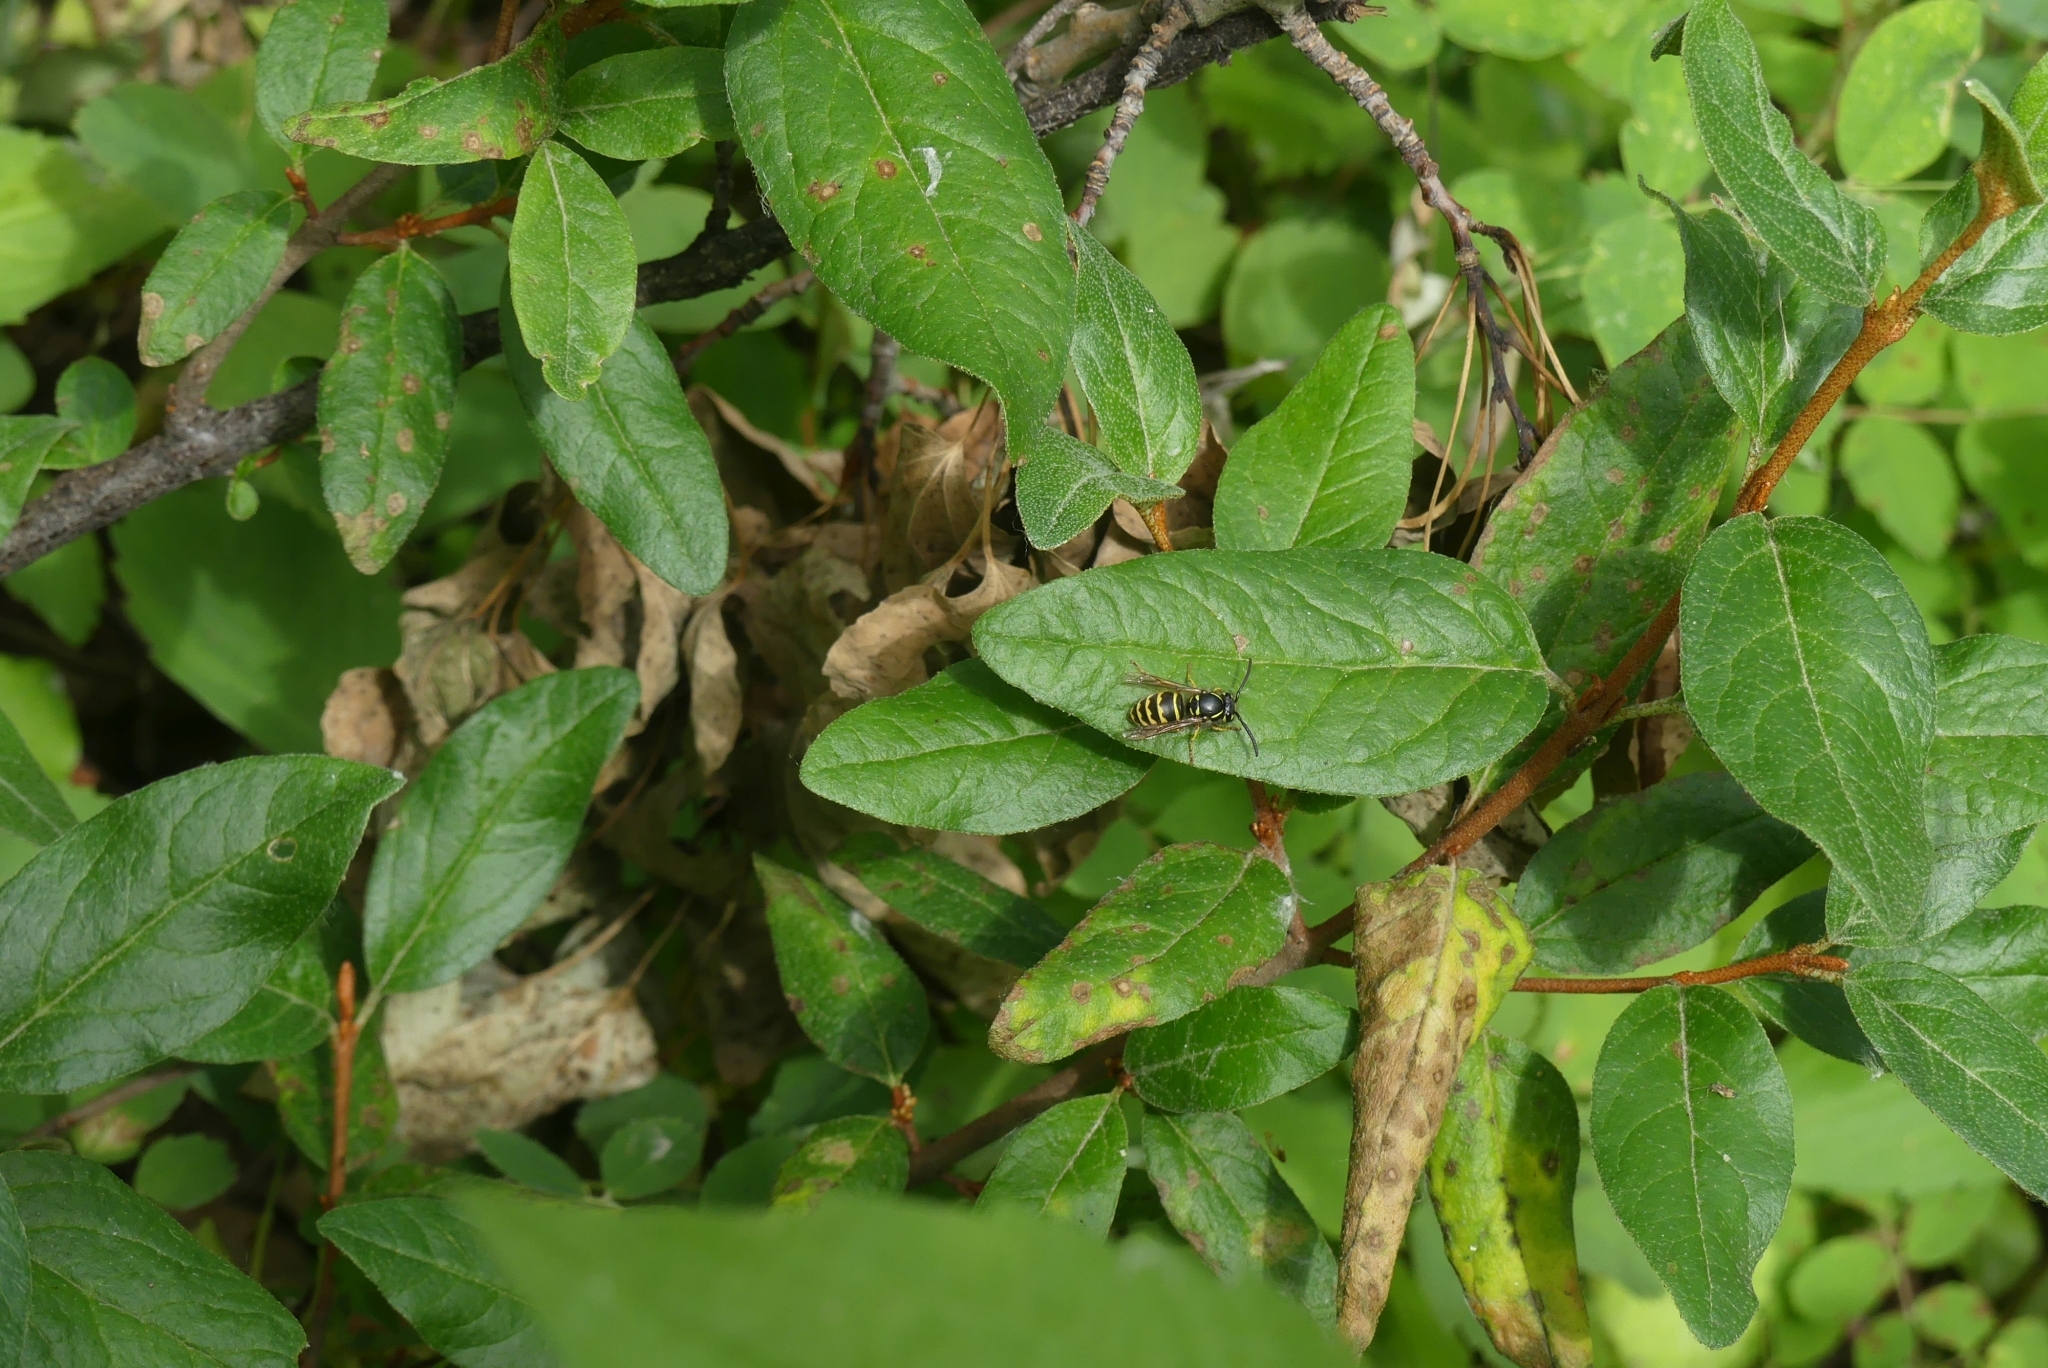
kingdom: Animalia
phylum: Arthropoda
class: Insecta
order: Hymenoptera
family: Vespidae
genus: Vespula
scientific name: Vespula alascensis
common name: Alaska yellowjacket
